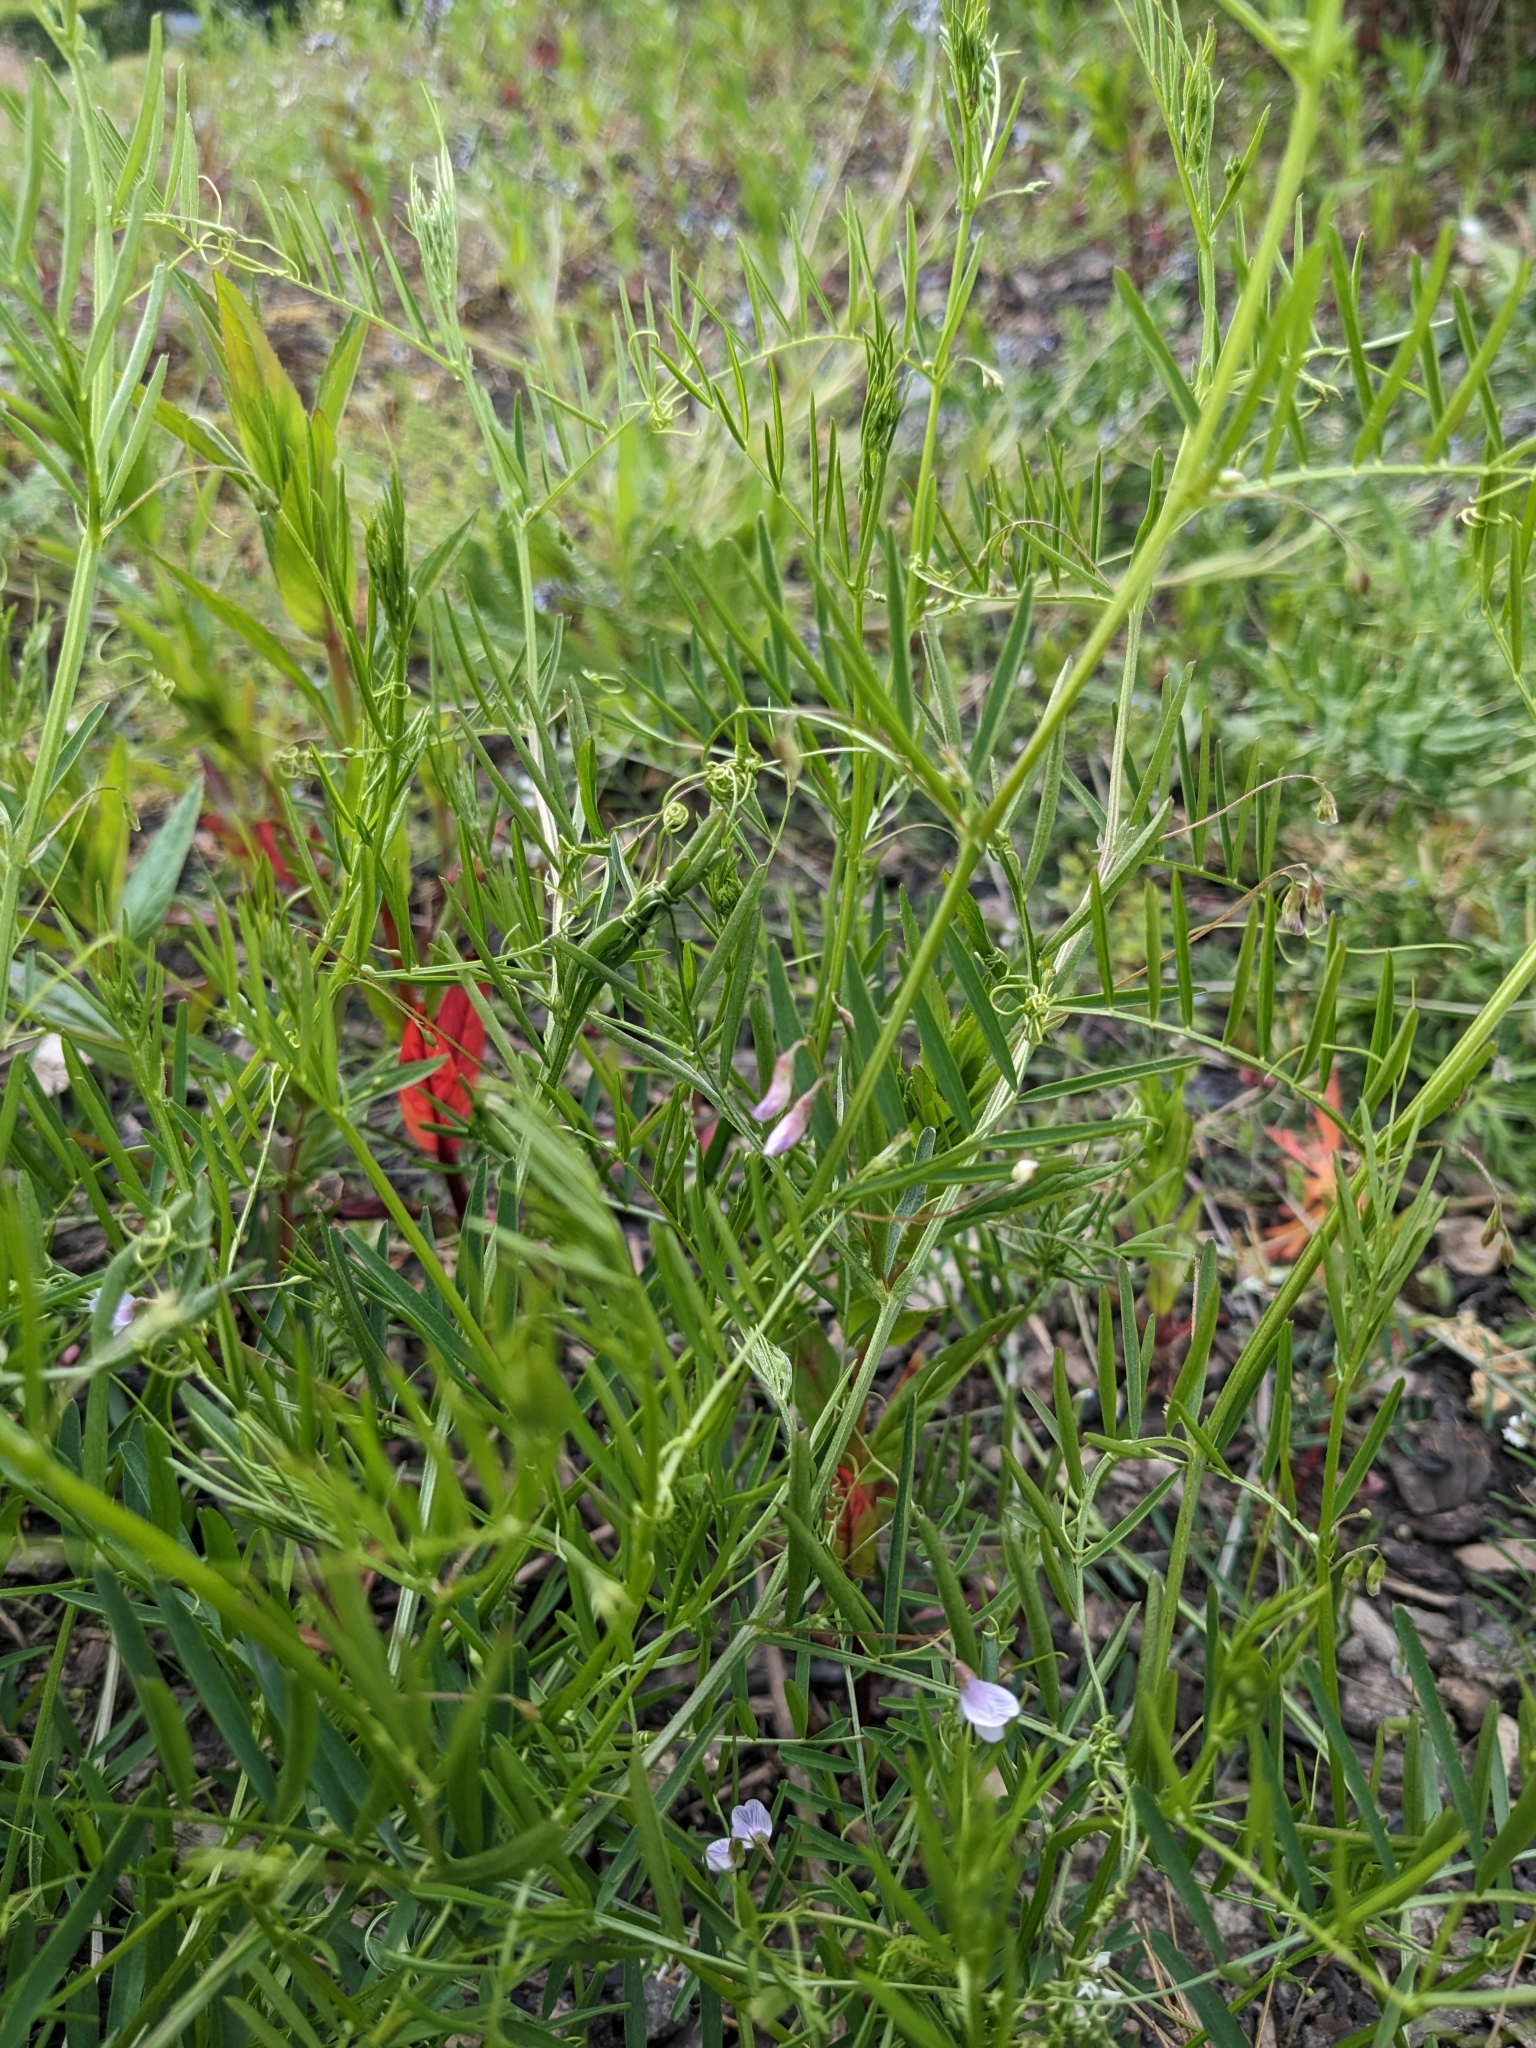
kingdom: Plantae
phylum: Tracheophyta
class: Magnoliopsida
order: Fabales
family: Fabaceae
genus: Vicia
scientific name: Vicia tetrasperma
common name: Smooth tare
